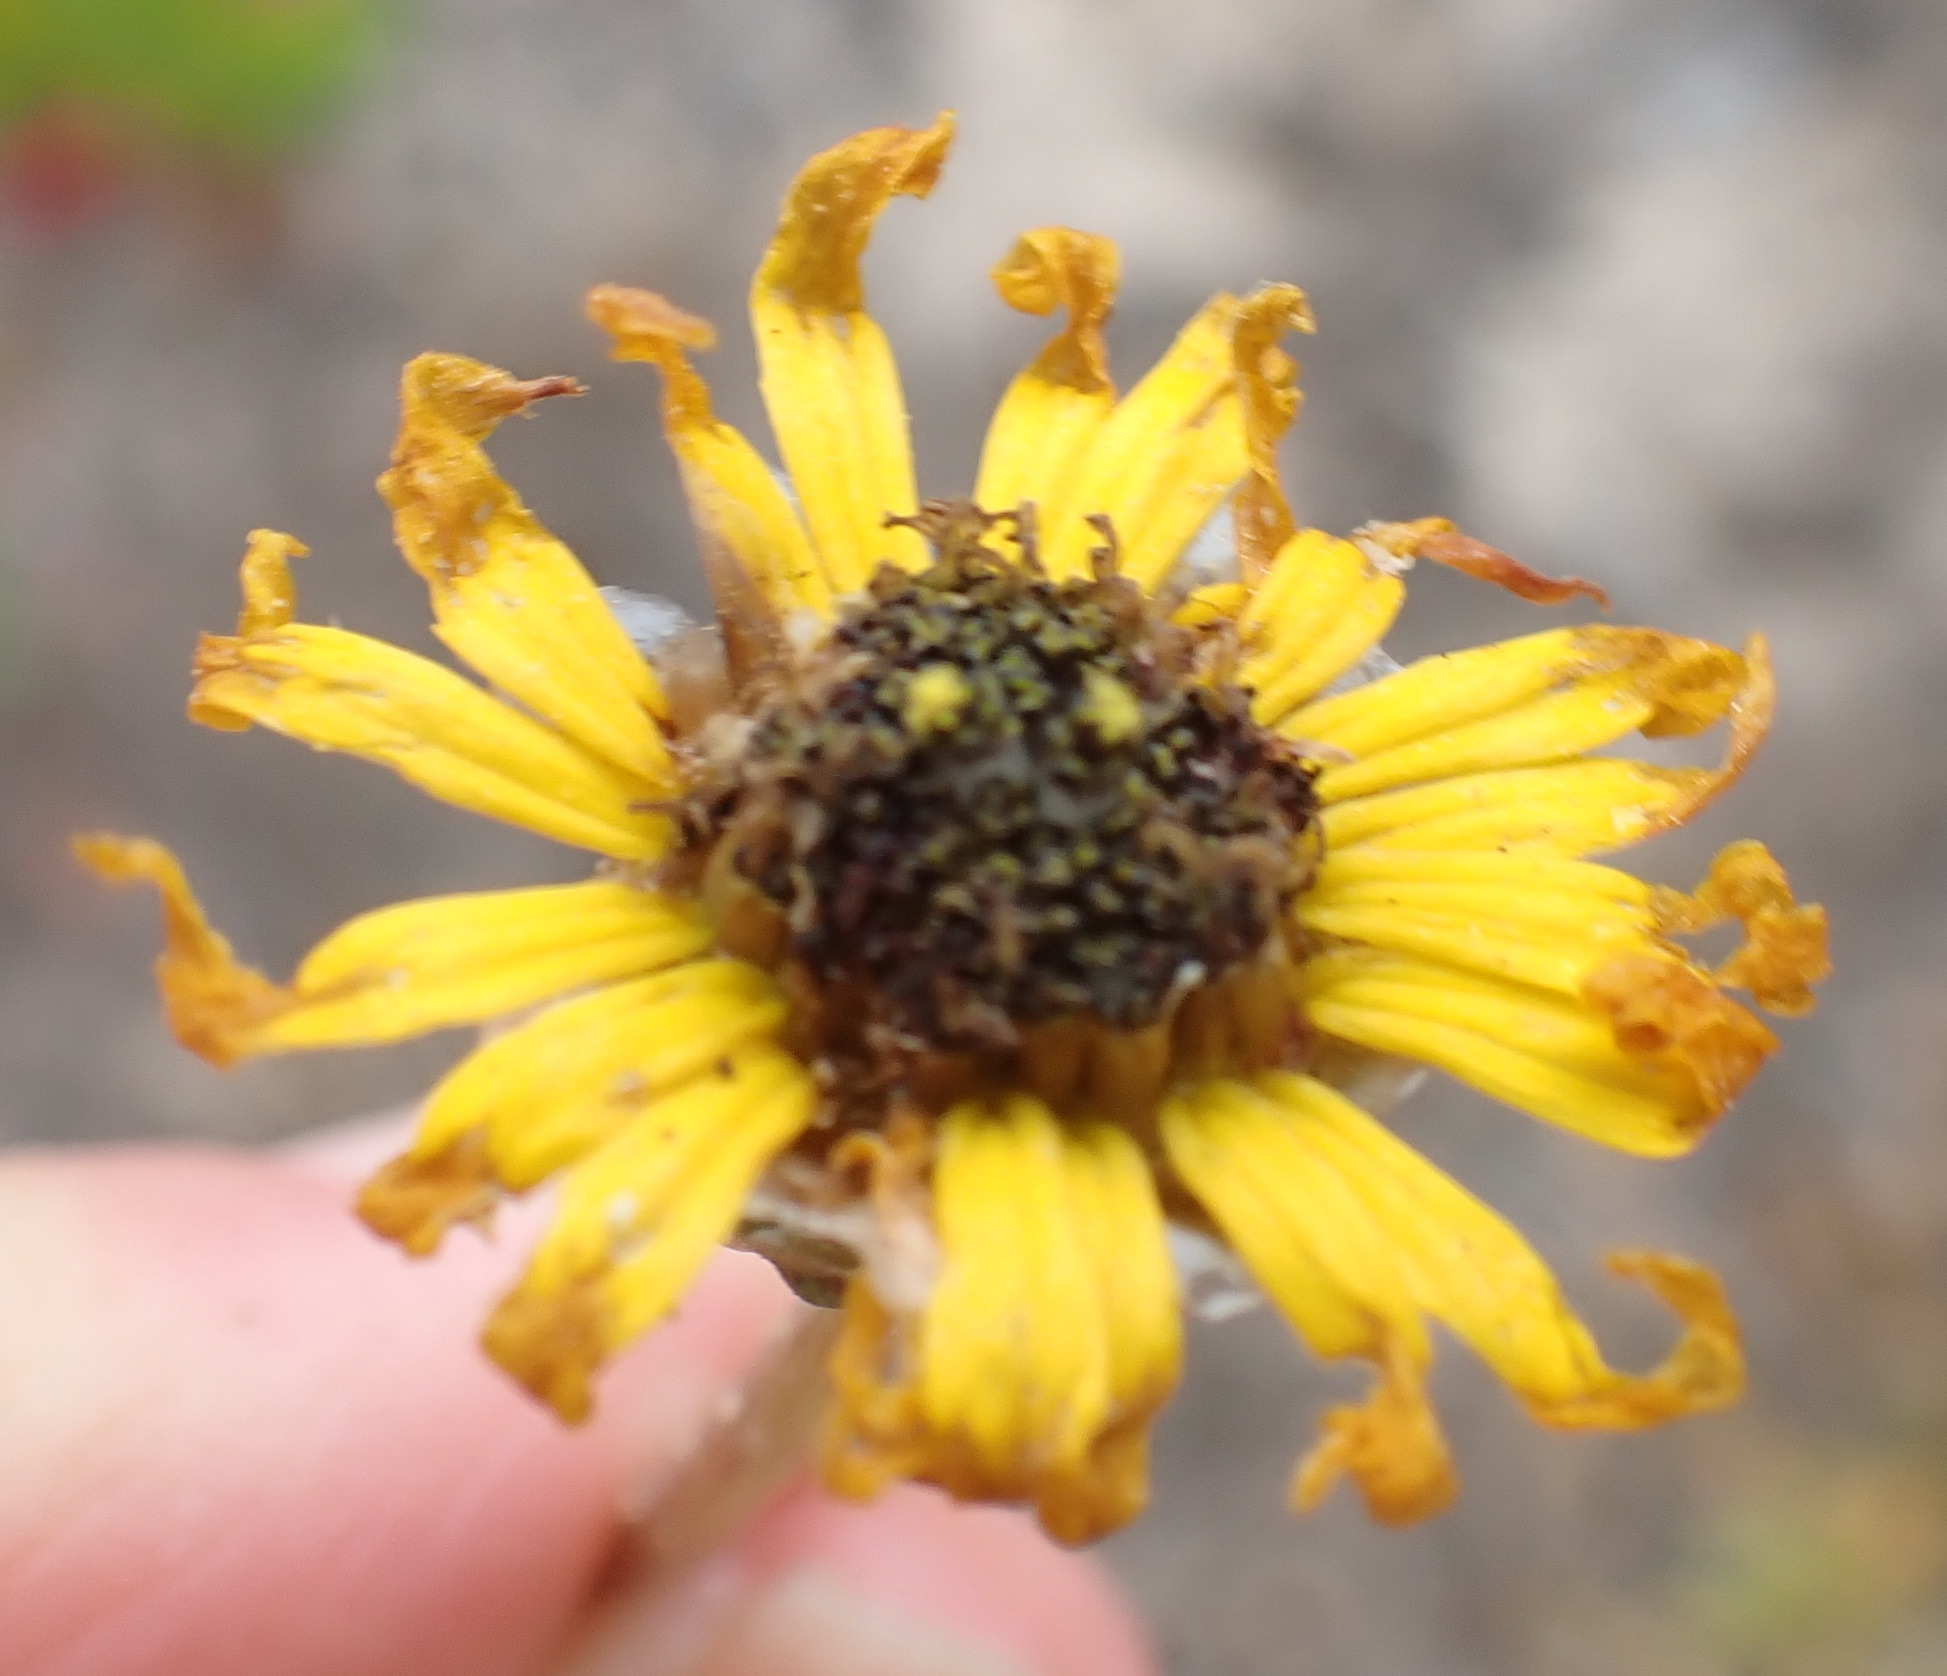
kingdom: Plantae
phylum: Tracheophyta
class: Magnoliopsida
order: Asterales
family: Asteraceae
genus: Ursinia
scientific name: Ursinia chrysanthemoides
